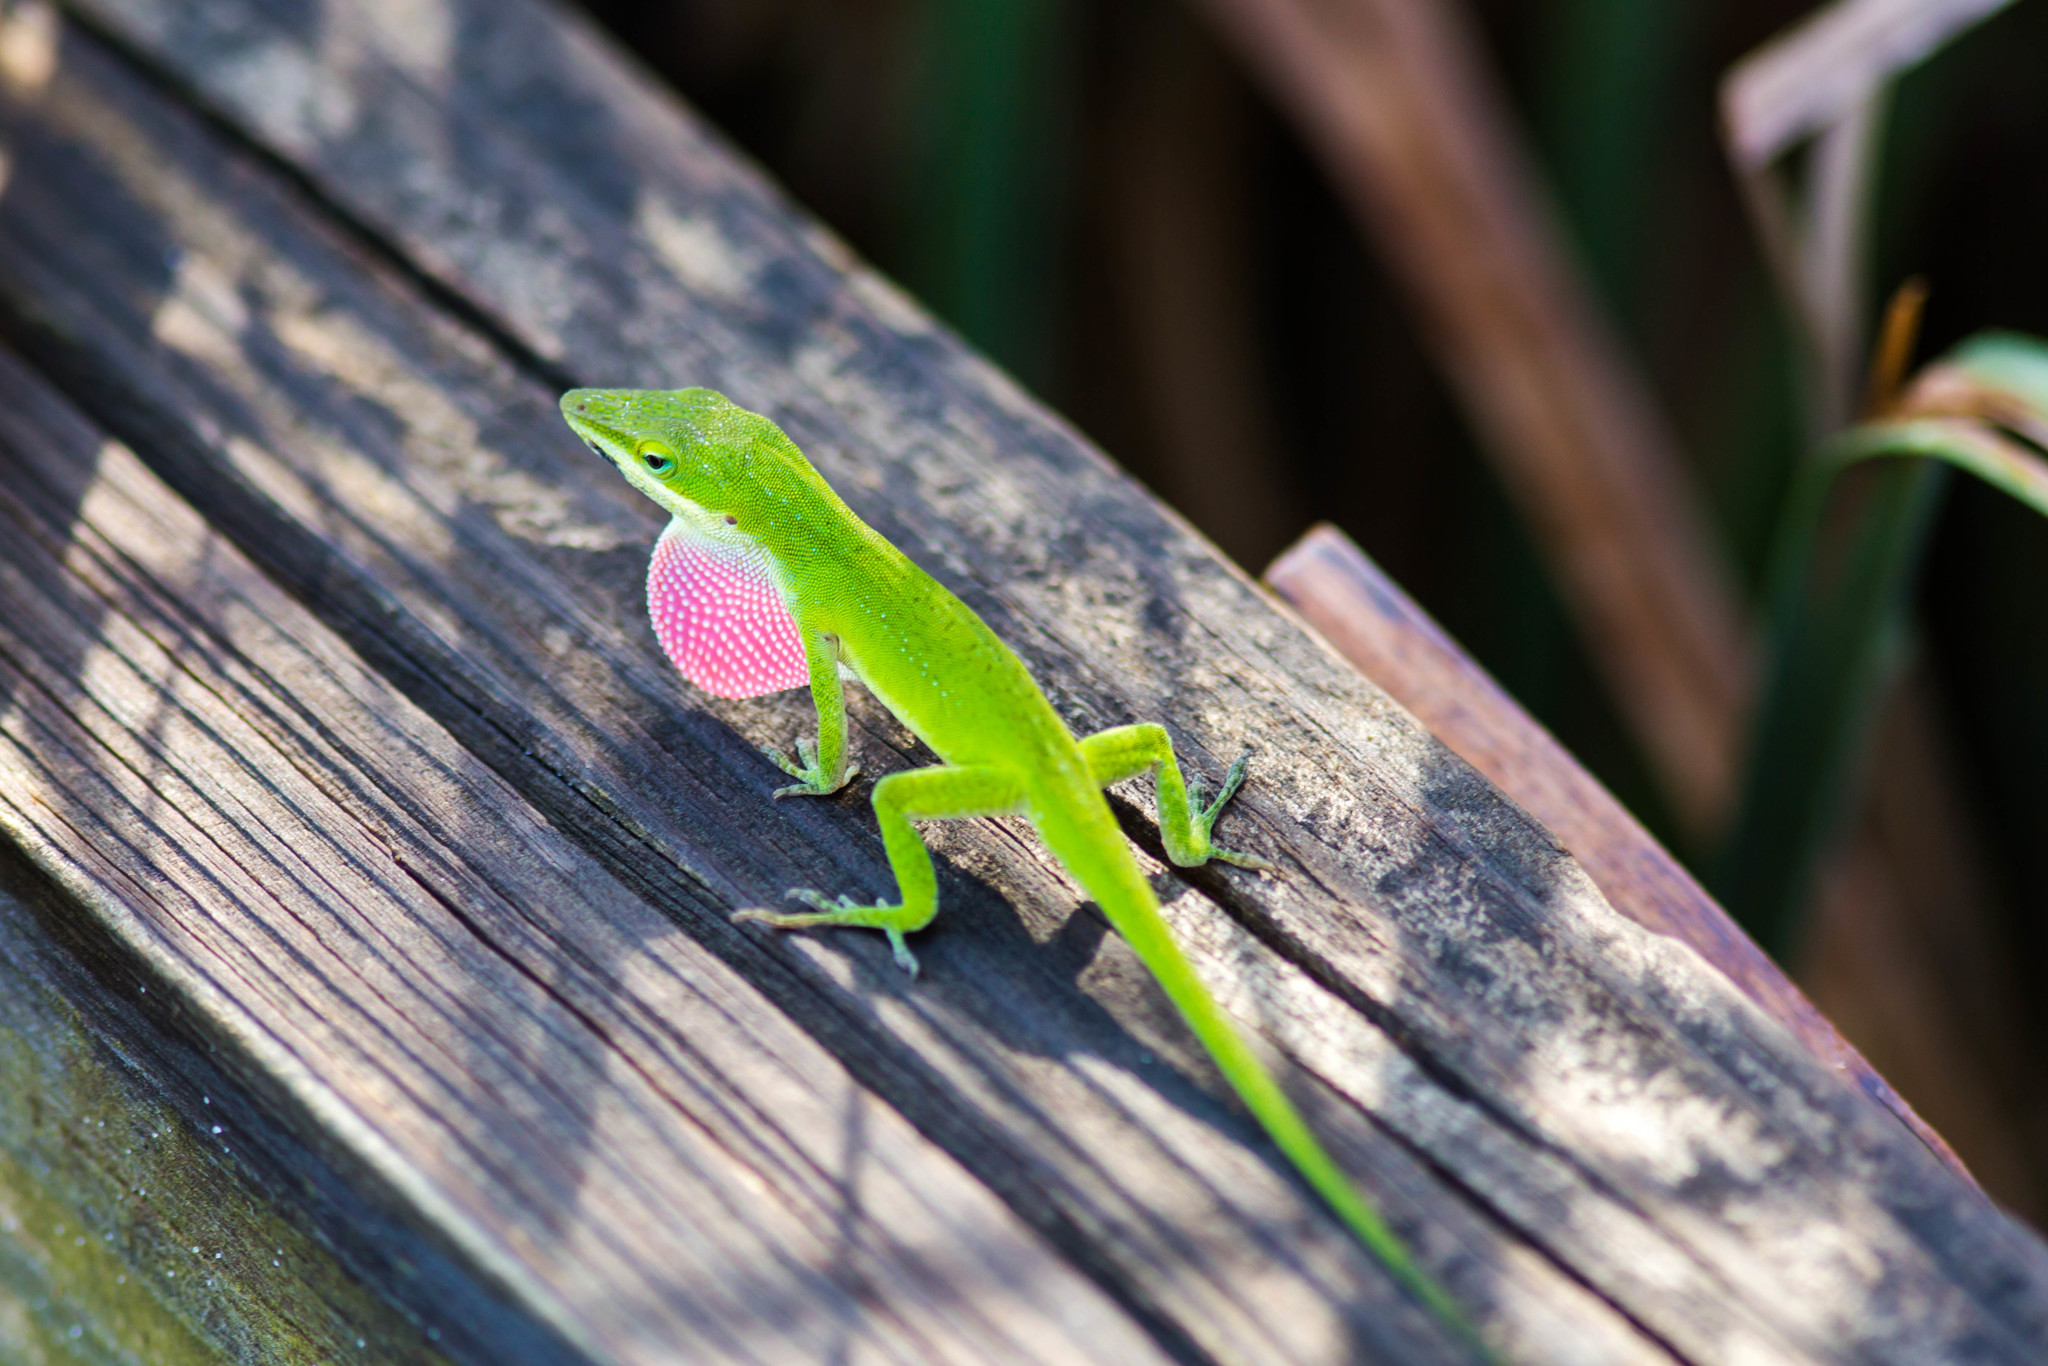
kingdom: Animalia
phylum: Chordata
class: Squamata
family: Dactyloidae
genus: Anolis
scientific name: Anolis carolinensis
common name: Green anole
